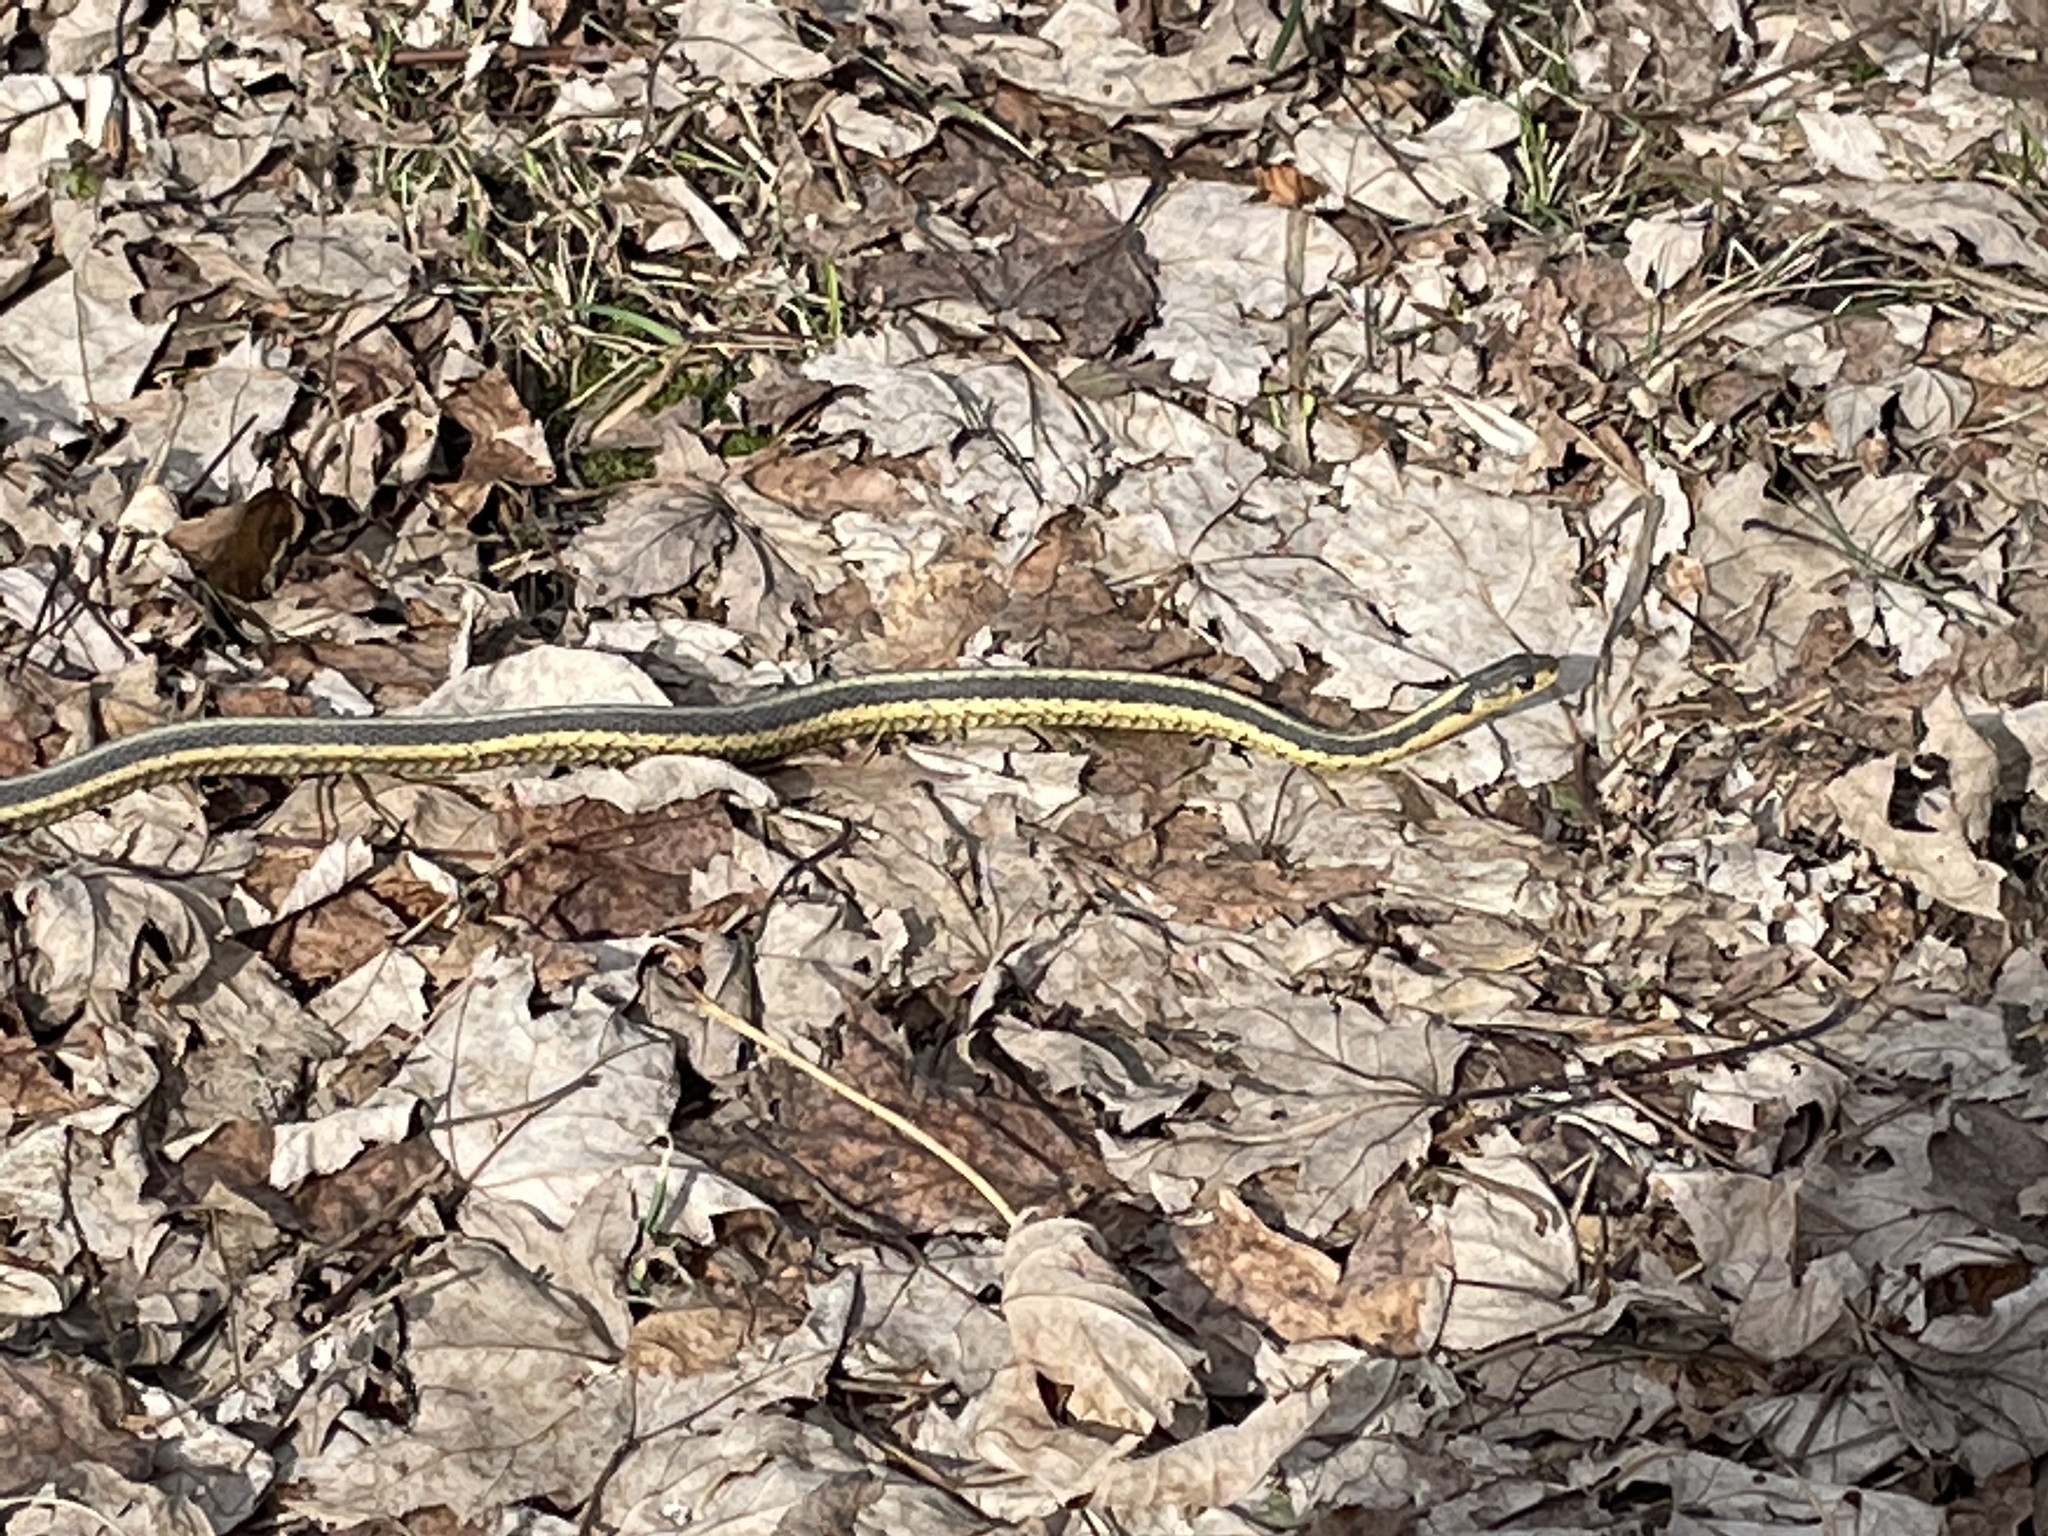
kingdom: Animalia
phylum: Chordata
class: Squamata
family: Colubridae
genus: Thamnophis
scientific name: Thamnophis sirtalis
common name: Common garter snake
